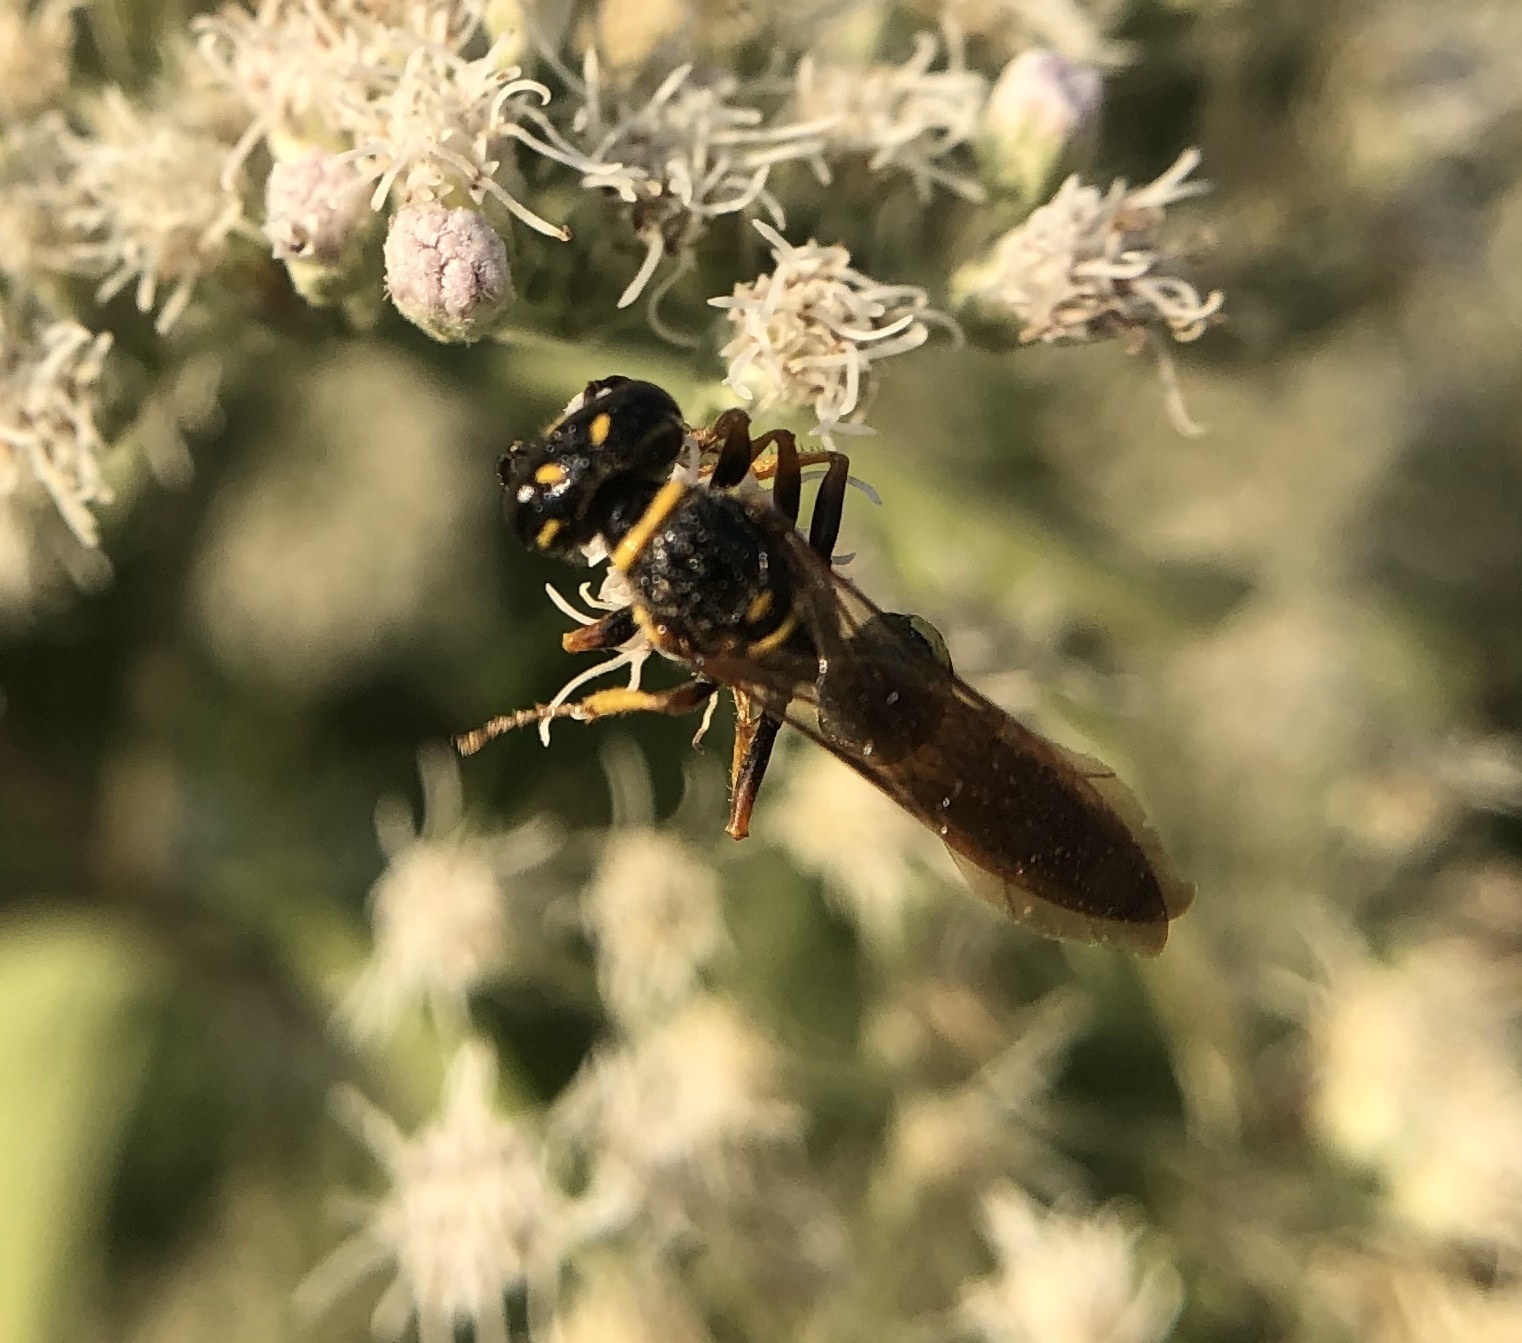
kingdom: Animalia
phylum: Arthropoda
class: Insecta
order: Hymenoptera
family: Crabronidae
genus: Philanthus
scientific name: Philanthus gibbosus
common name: Humped beewolf
